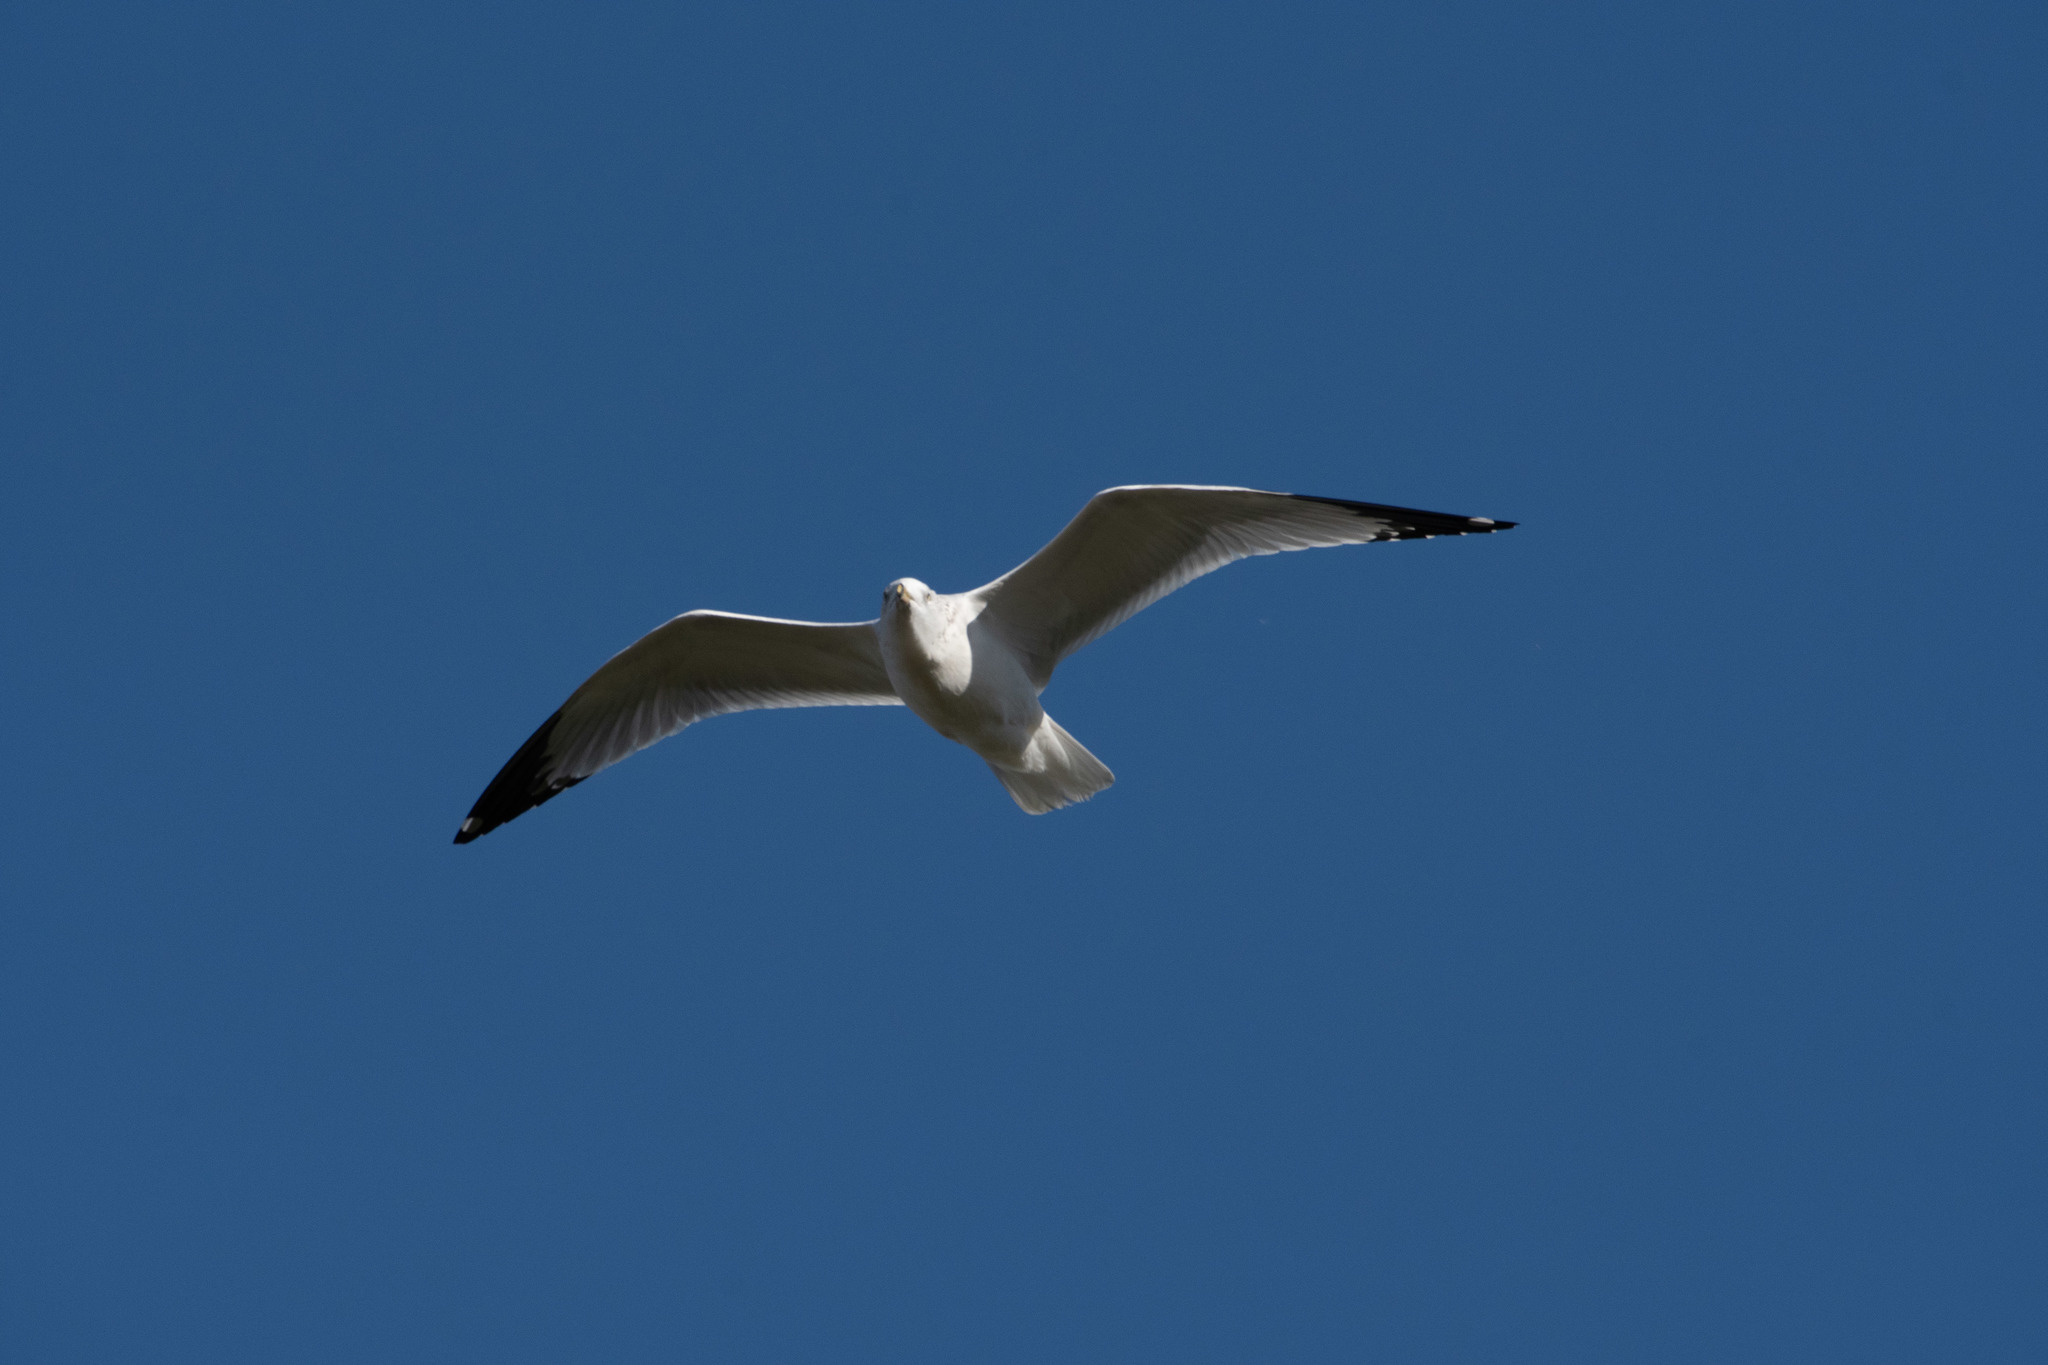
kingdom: Animalia
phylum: Chordata
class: Aves
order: Charadriiformes
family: Laridae
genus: Larus
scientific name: Larus delawarensis
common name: Ring-billed gull
